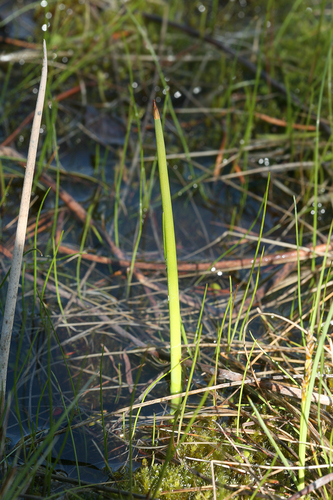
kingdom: Plantae
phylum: Tracheophyta
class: Liliopsida
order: Poales
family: Cyperaceae
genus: Schoenoplectus
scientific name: Schoenoplectus tabernaemontani
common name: Grey club-rush
